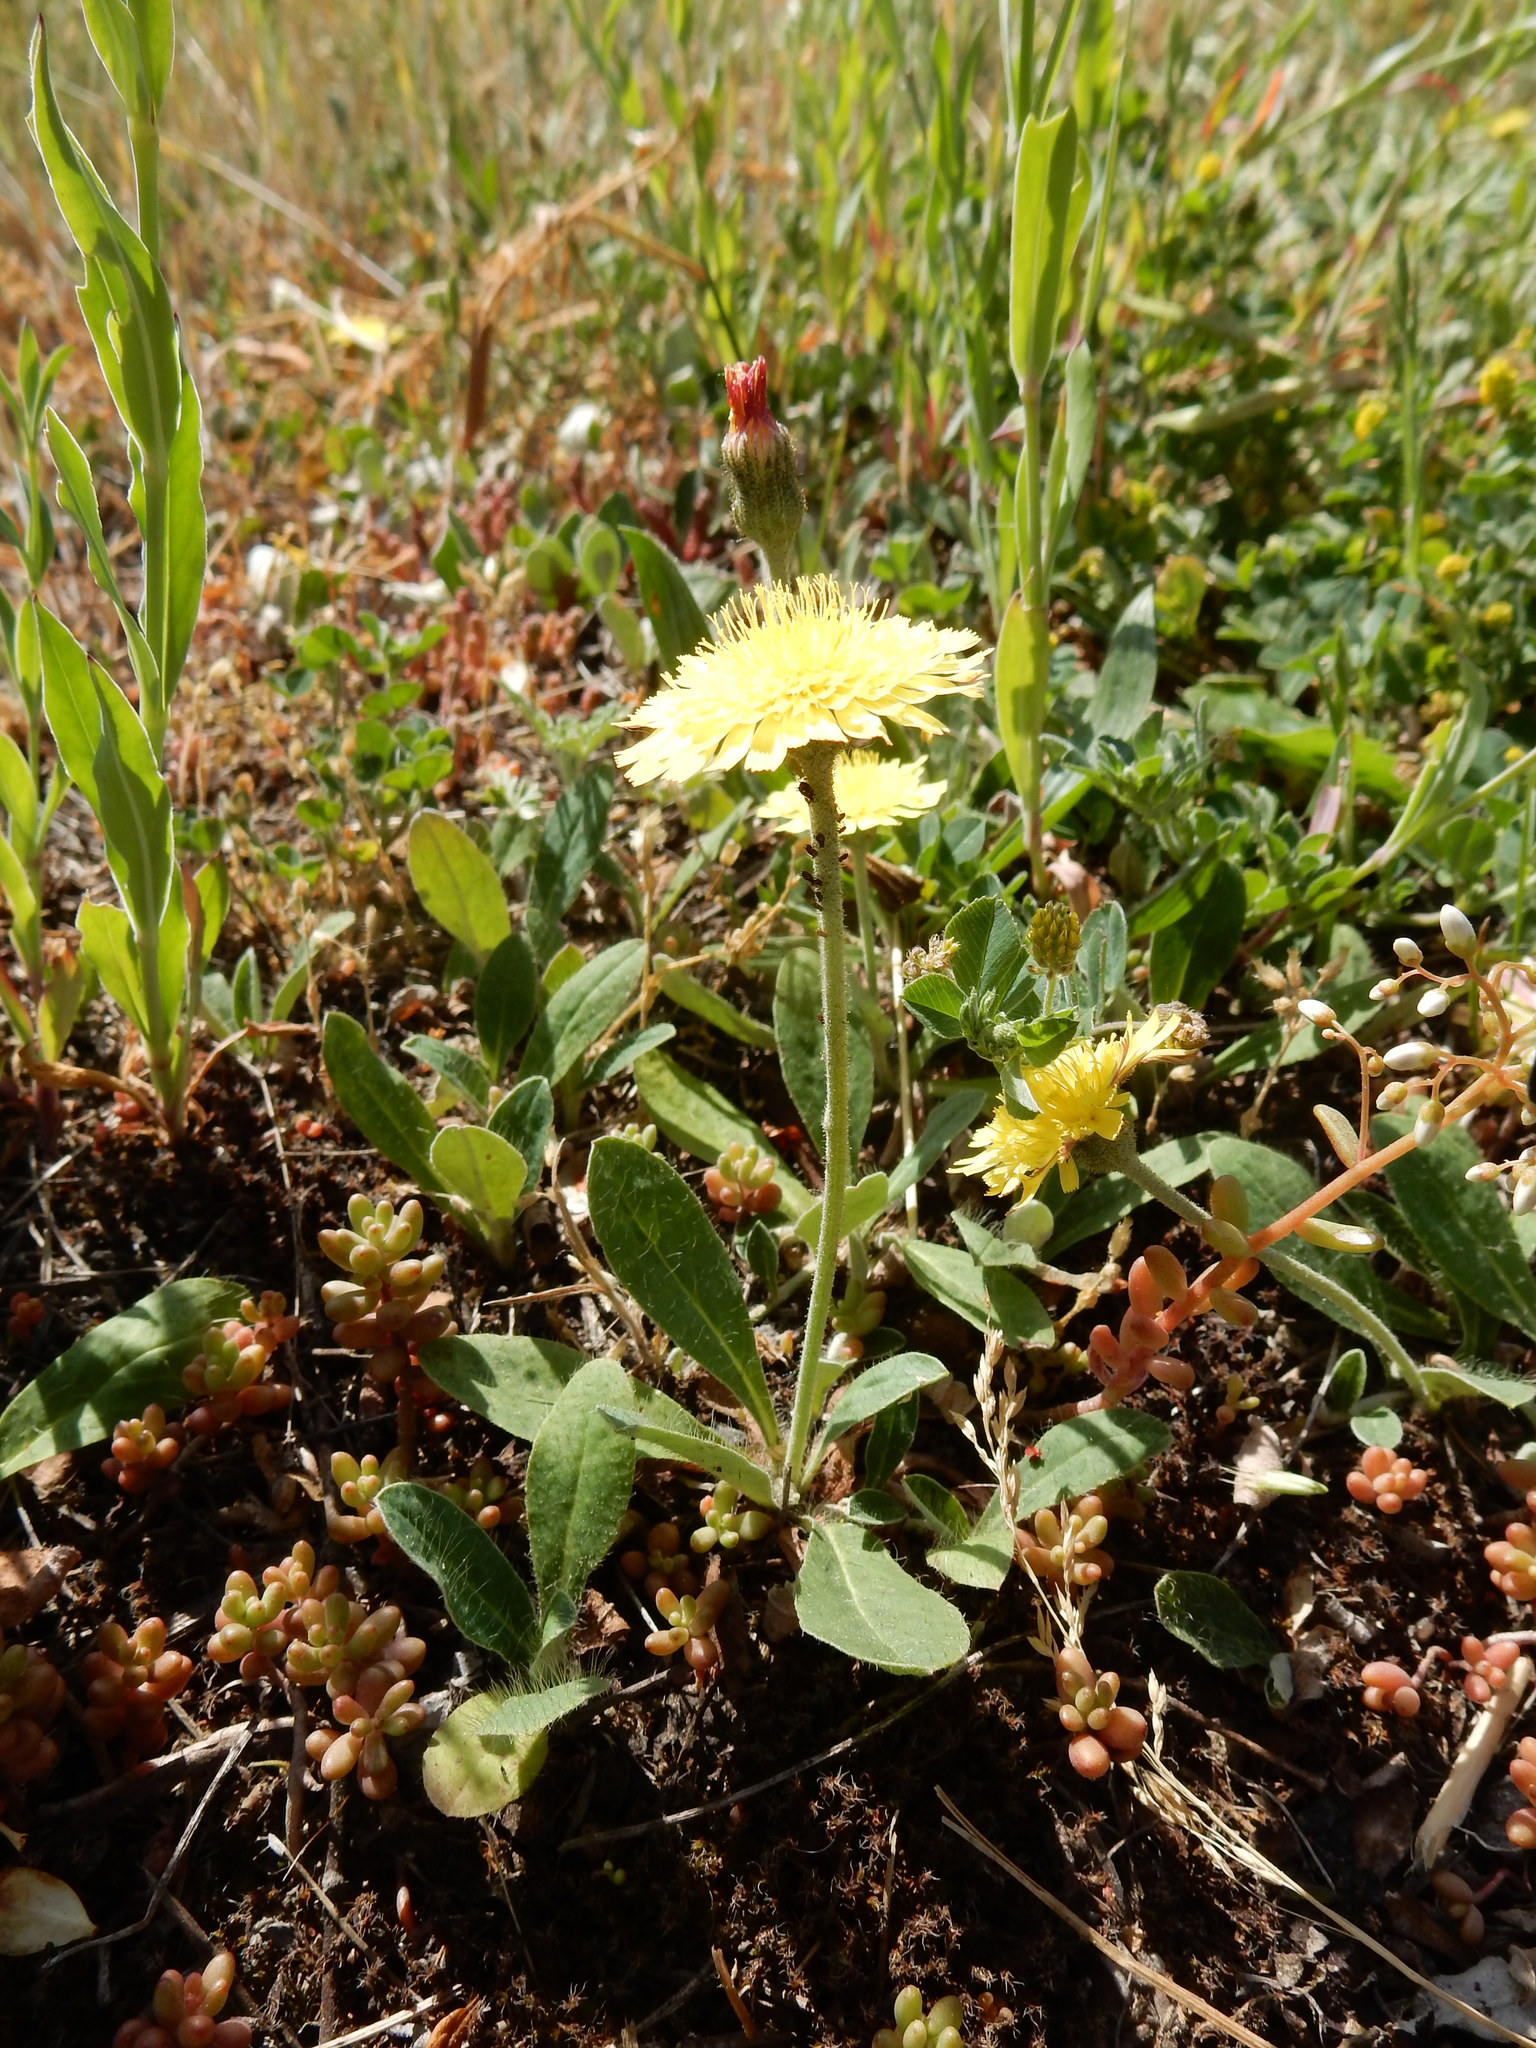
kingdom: Plantae
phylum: Tracheophyta
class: Magnoliopsida
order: Asterales
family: Asteraceae
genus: Pilosella
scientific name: Pilosella officinarum
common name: Mouse-ear hawkweed
